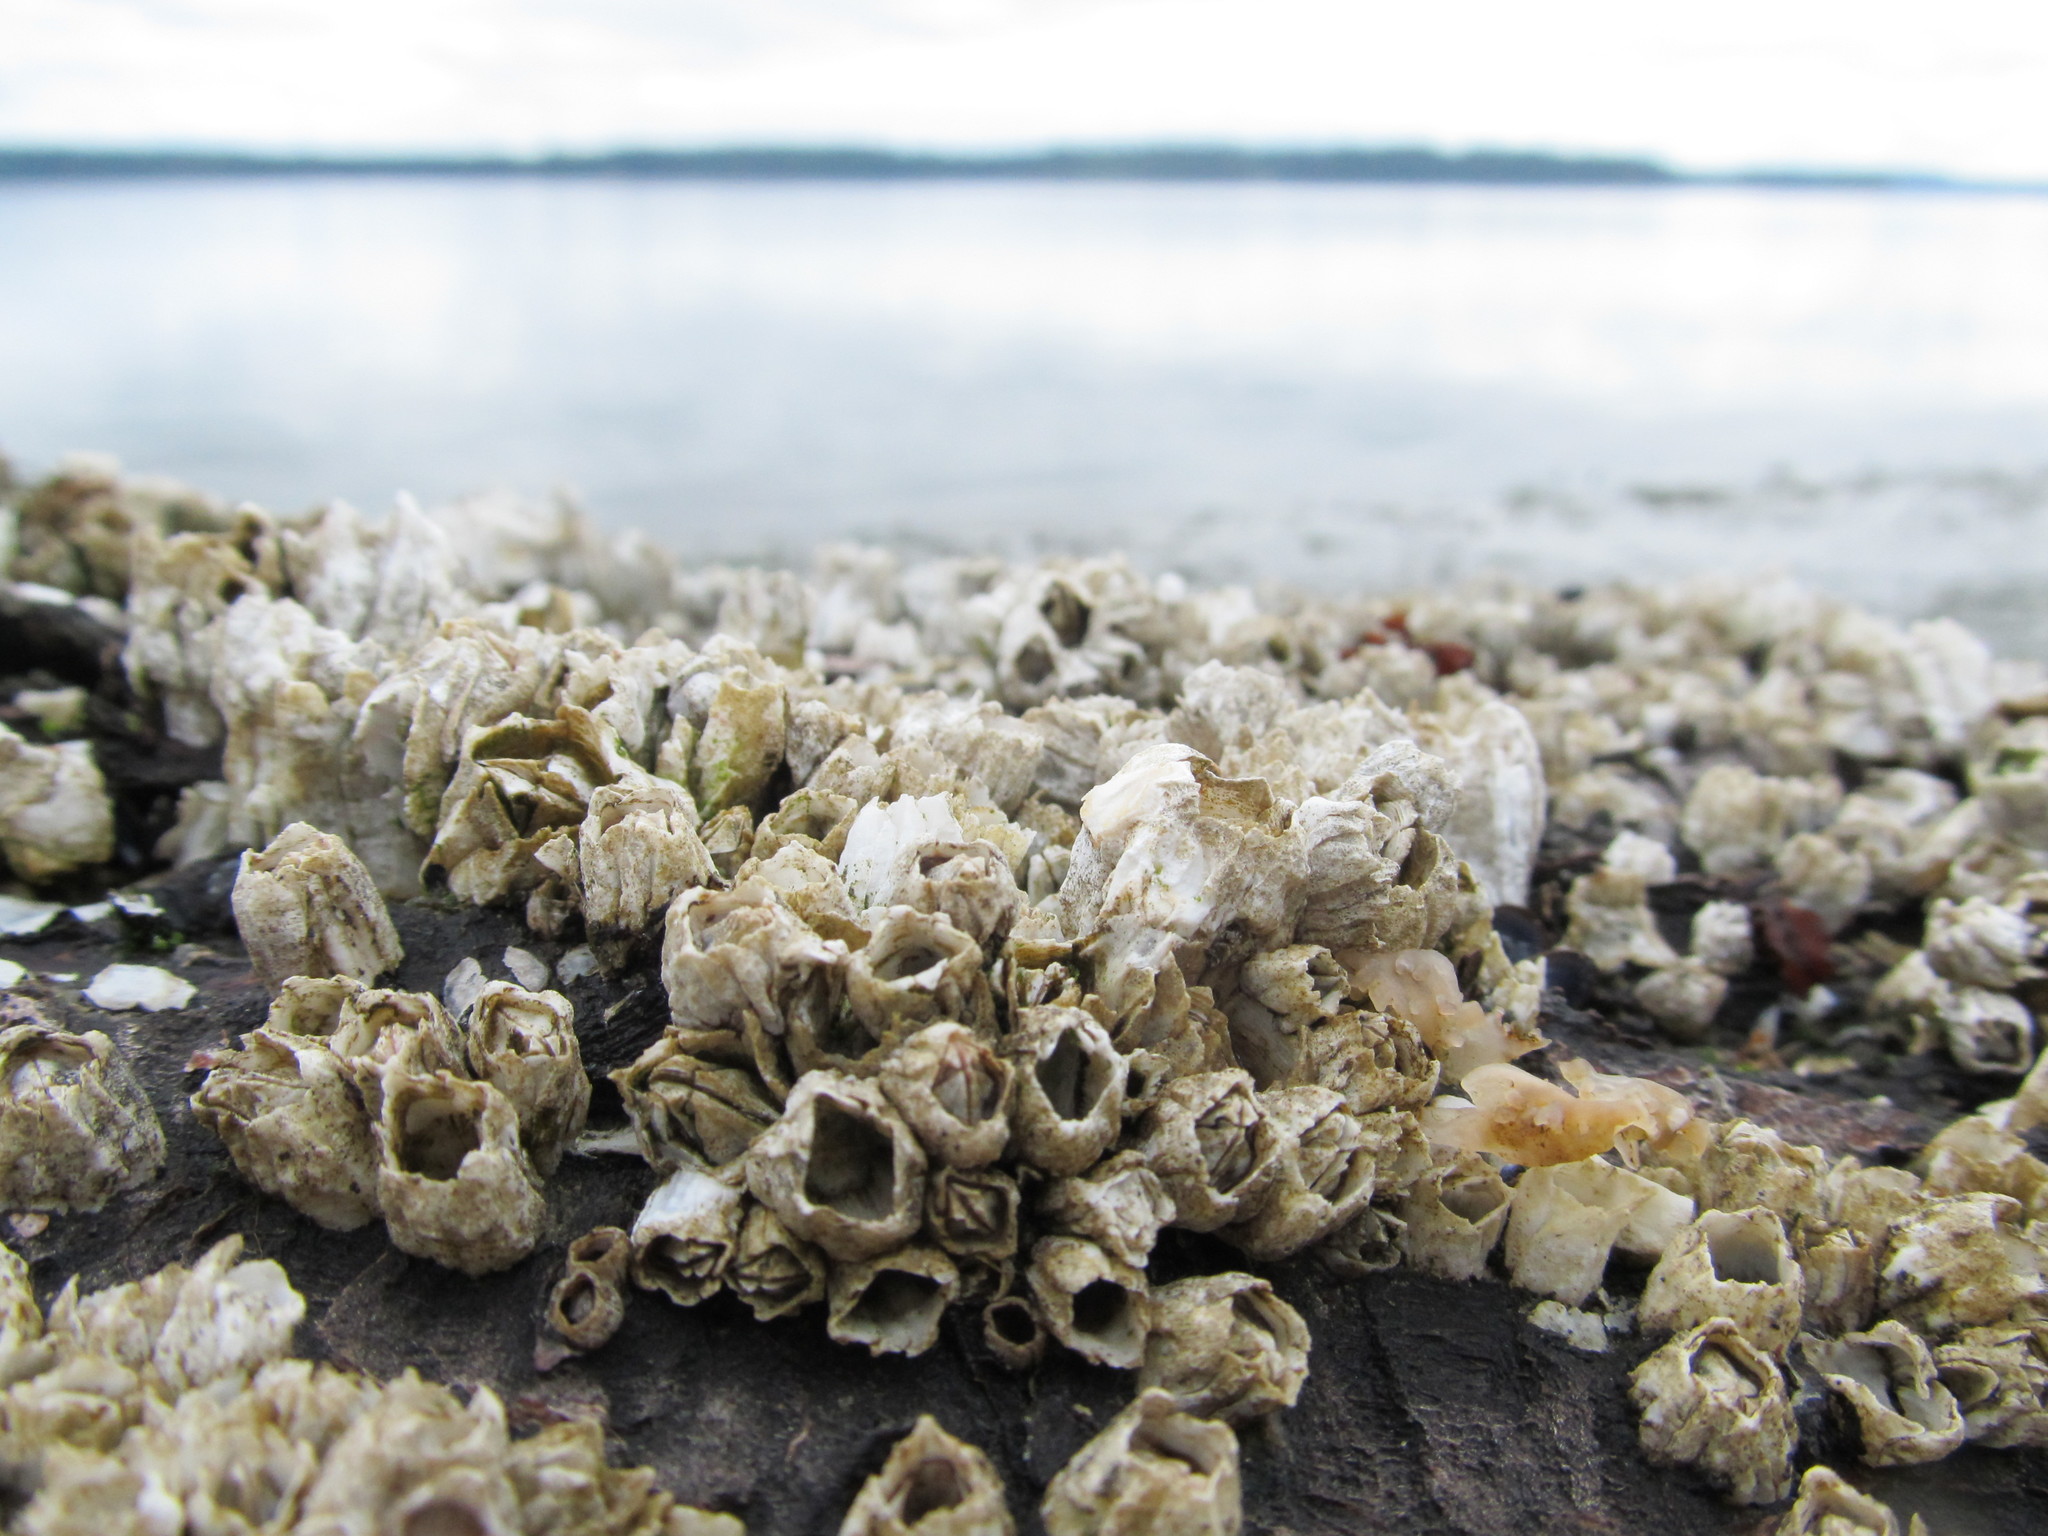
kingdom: Animalia
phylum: Arthropoda
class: Maxillopoda
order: Sessilia
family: Balanidae
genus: Balanus
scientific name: Balanus glandula
